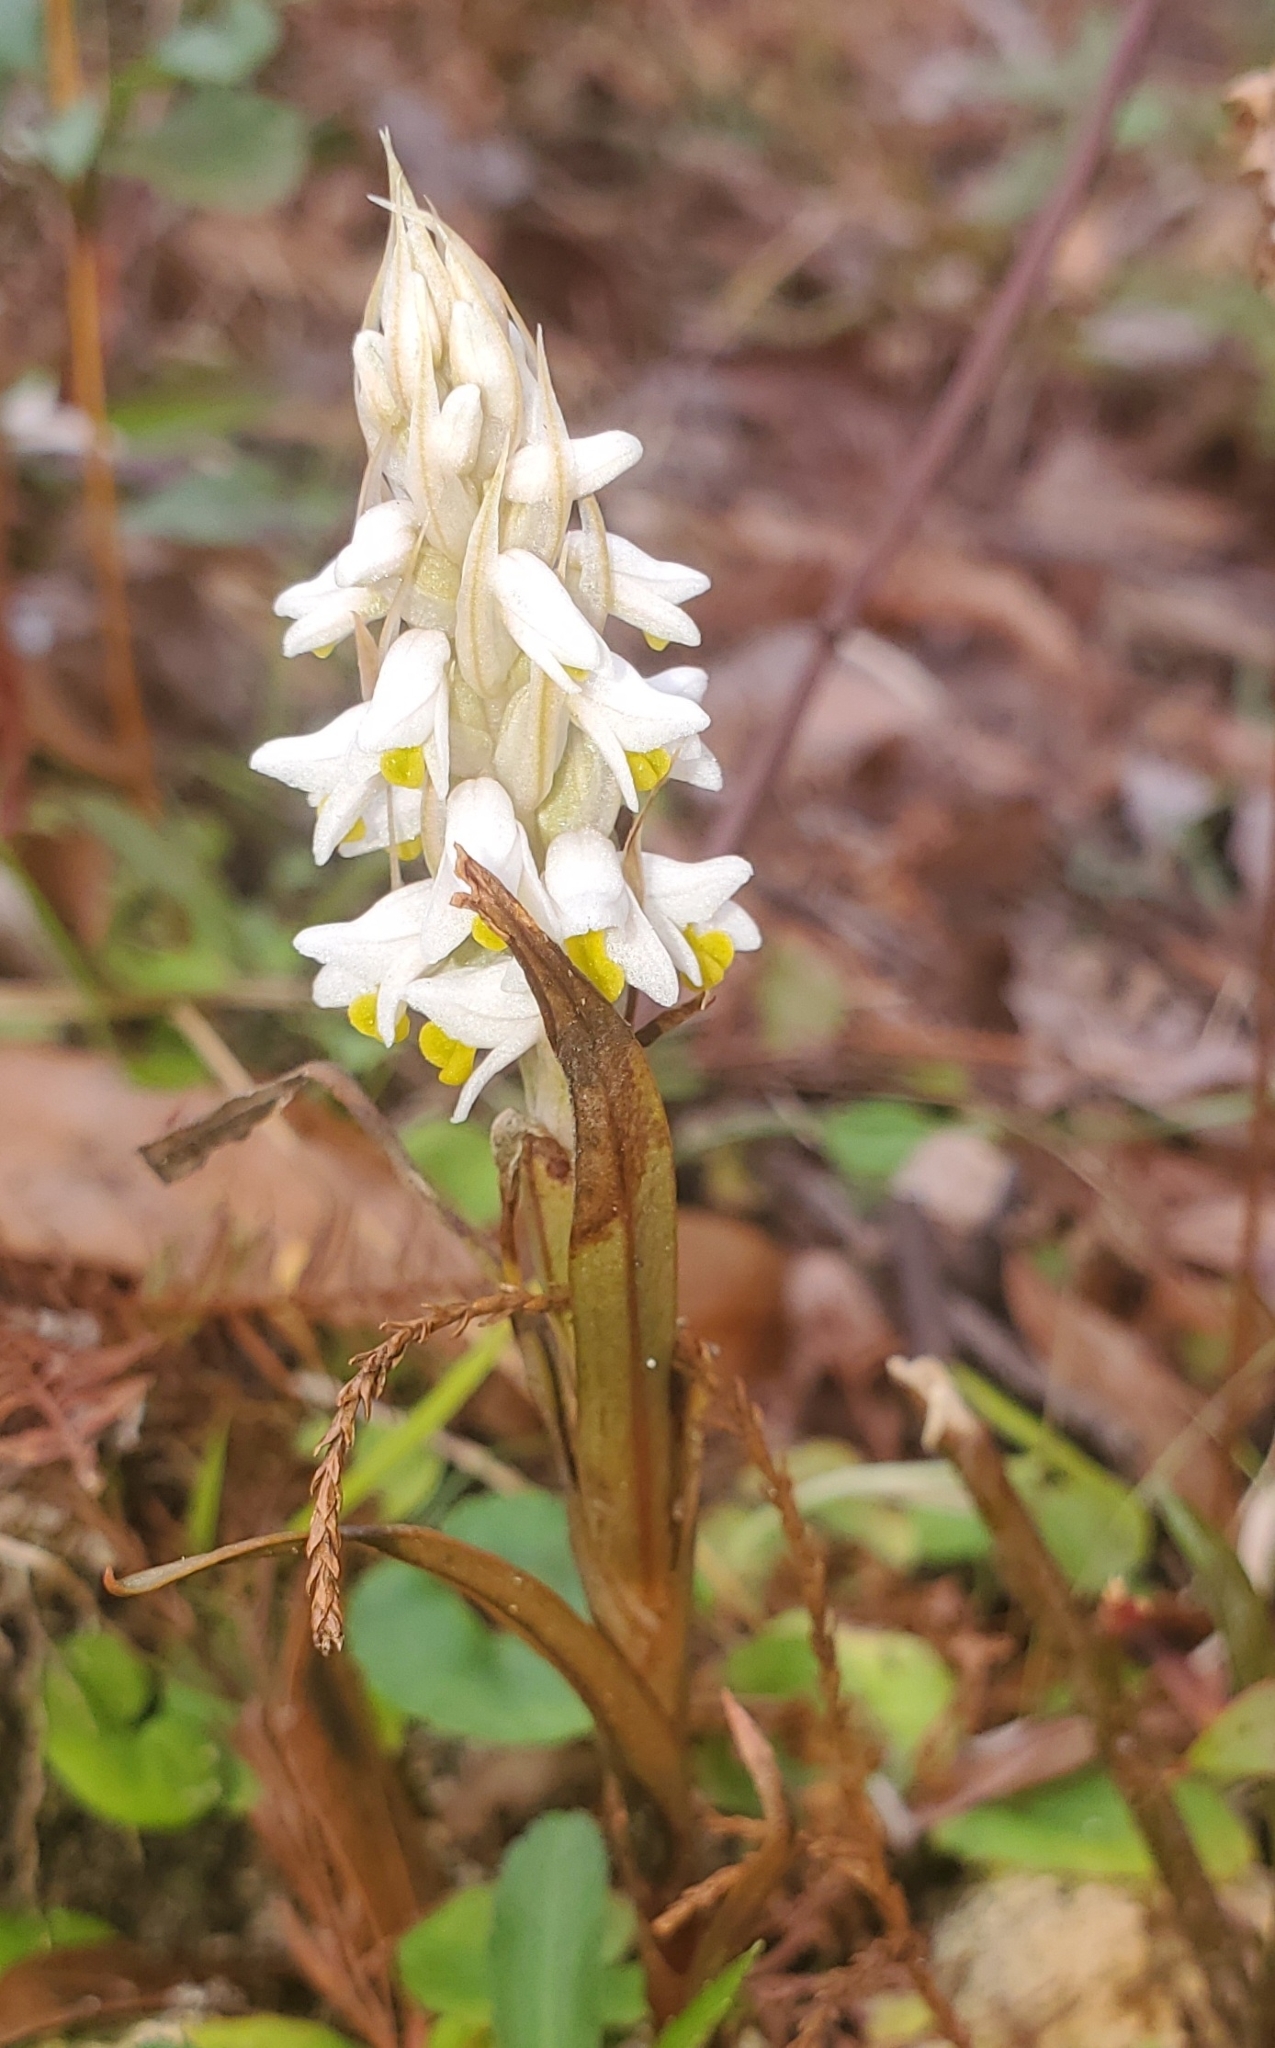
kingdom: Plantae
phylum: Tracheophyta
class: Liliopsida
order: Asparagales
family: Orchidaceae
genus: Zeuxine
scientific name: Zeuxine strateumatica
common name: Soldier's orchid
